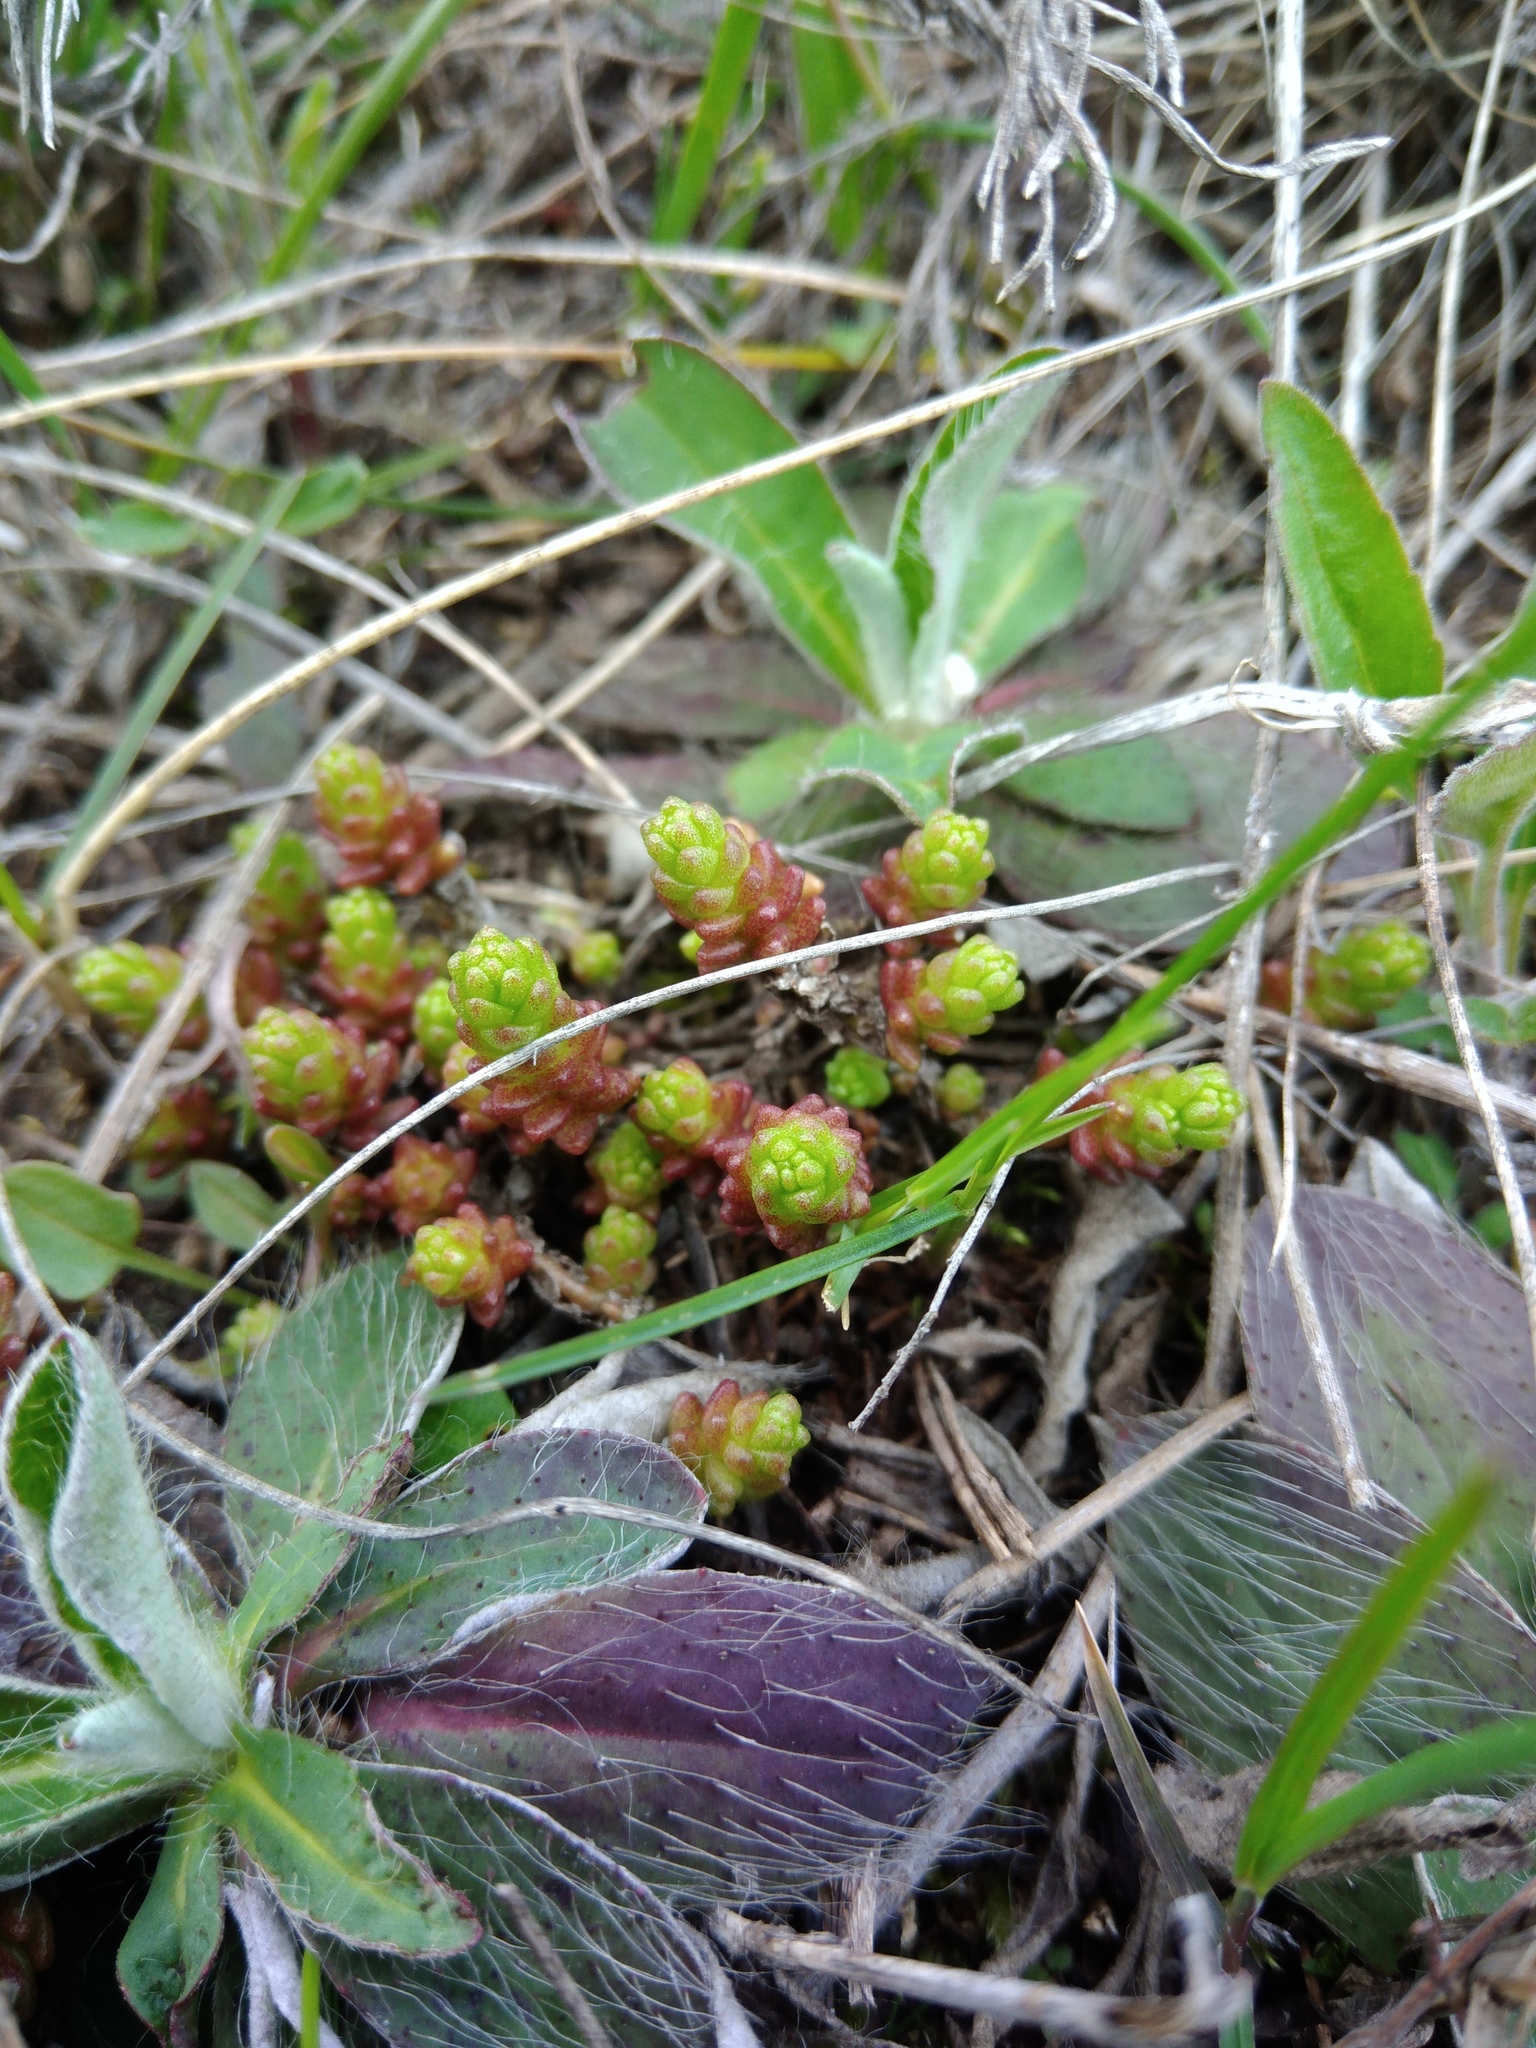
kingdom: Plantae
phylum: Tracheophyta
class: Magnoliopsida
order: Saxifragales
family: Crassulaceae
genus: Sedum
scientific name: Sedum acre
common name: Biting stonecrop
